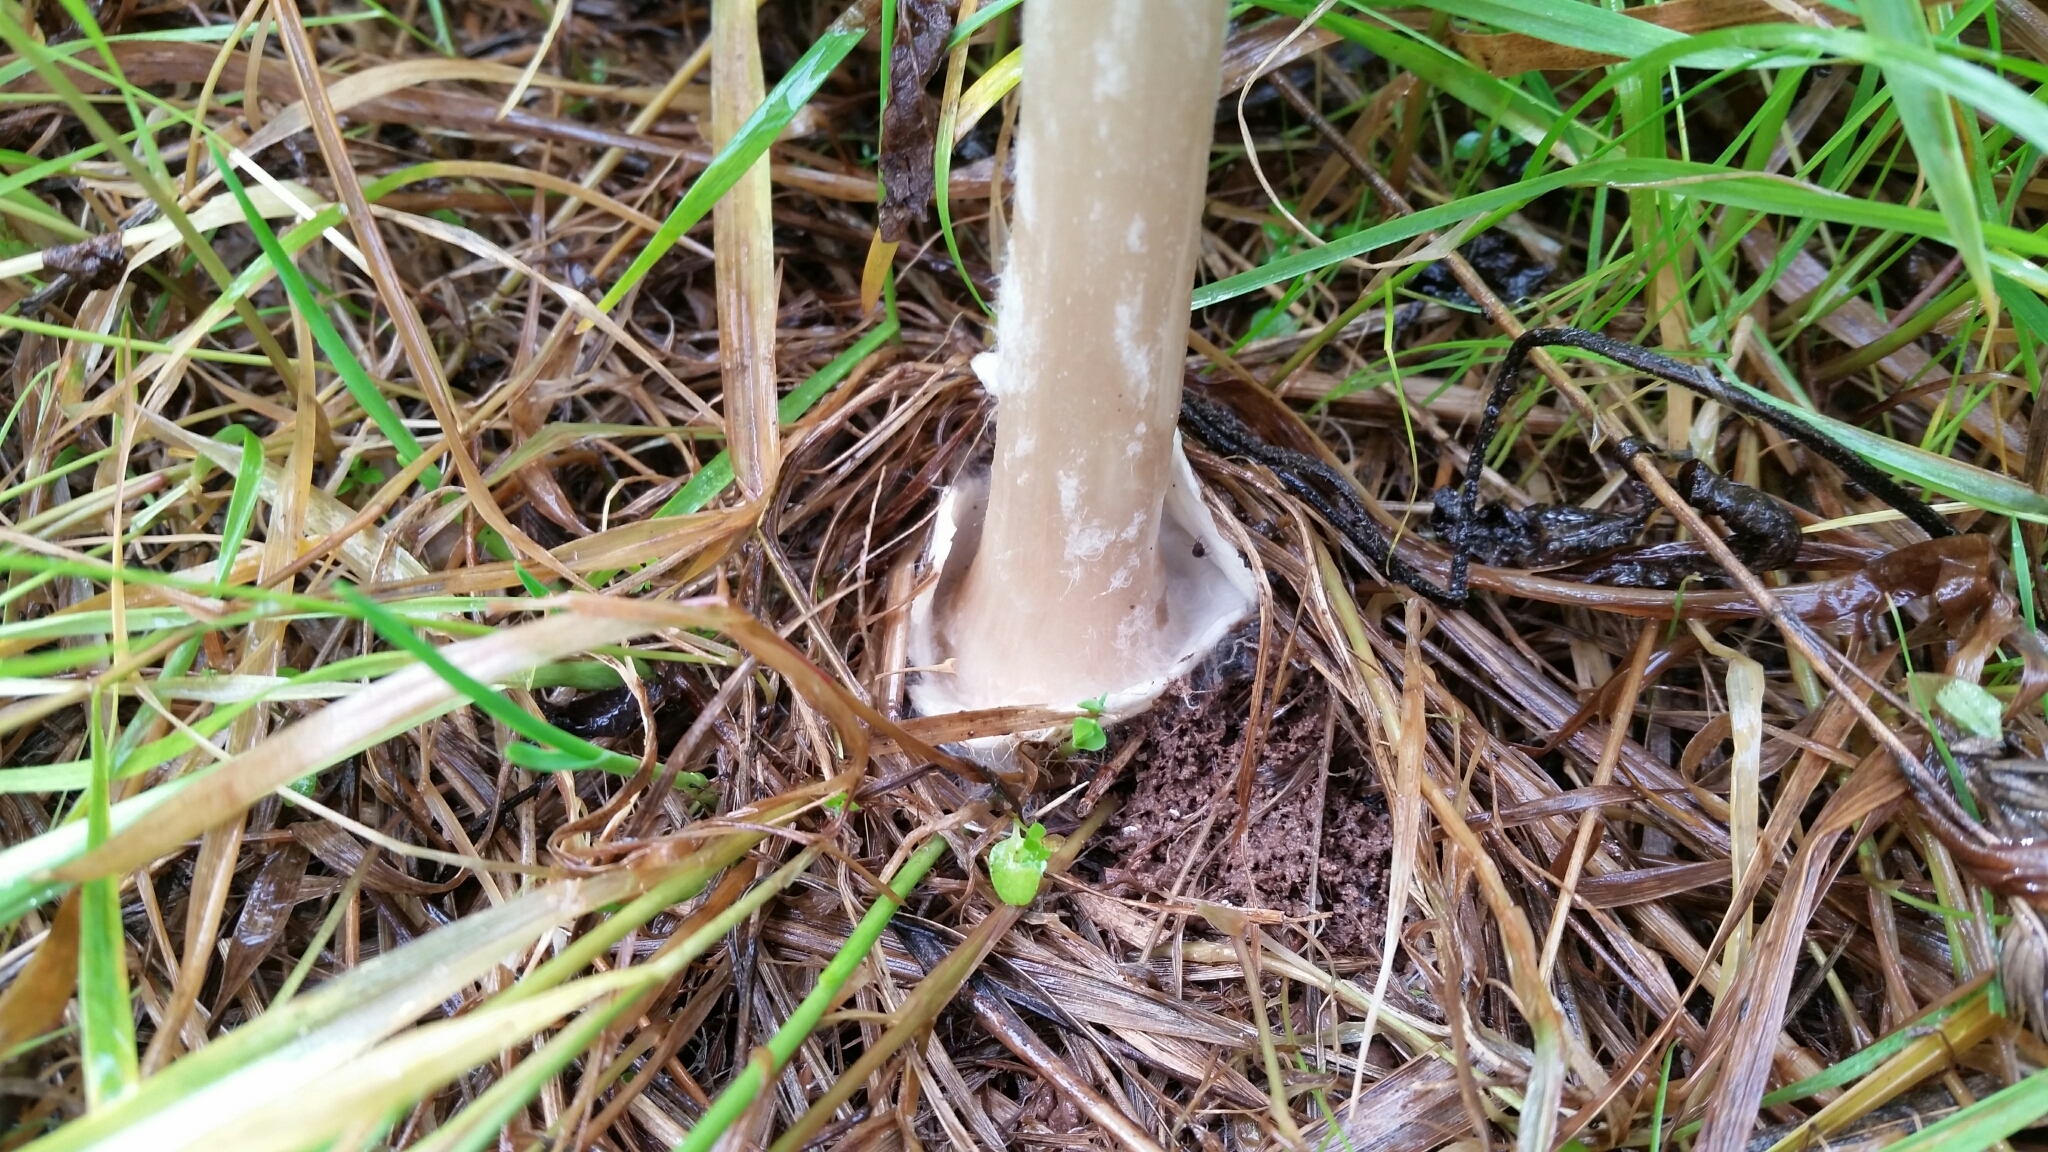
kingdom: Fungi
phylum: Basidiomycota
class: Agaricomycetes
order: Agaricales
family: Pluteaceae
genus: Volvopluteus
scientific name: Volvopluteus gloiocephalus
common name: Stubble rosegill
